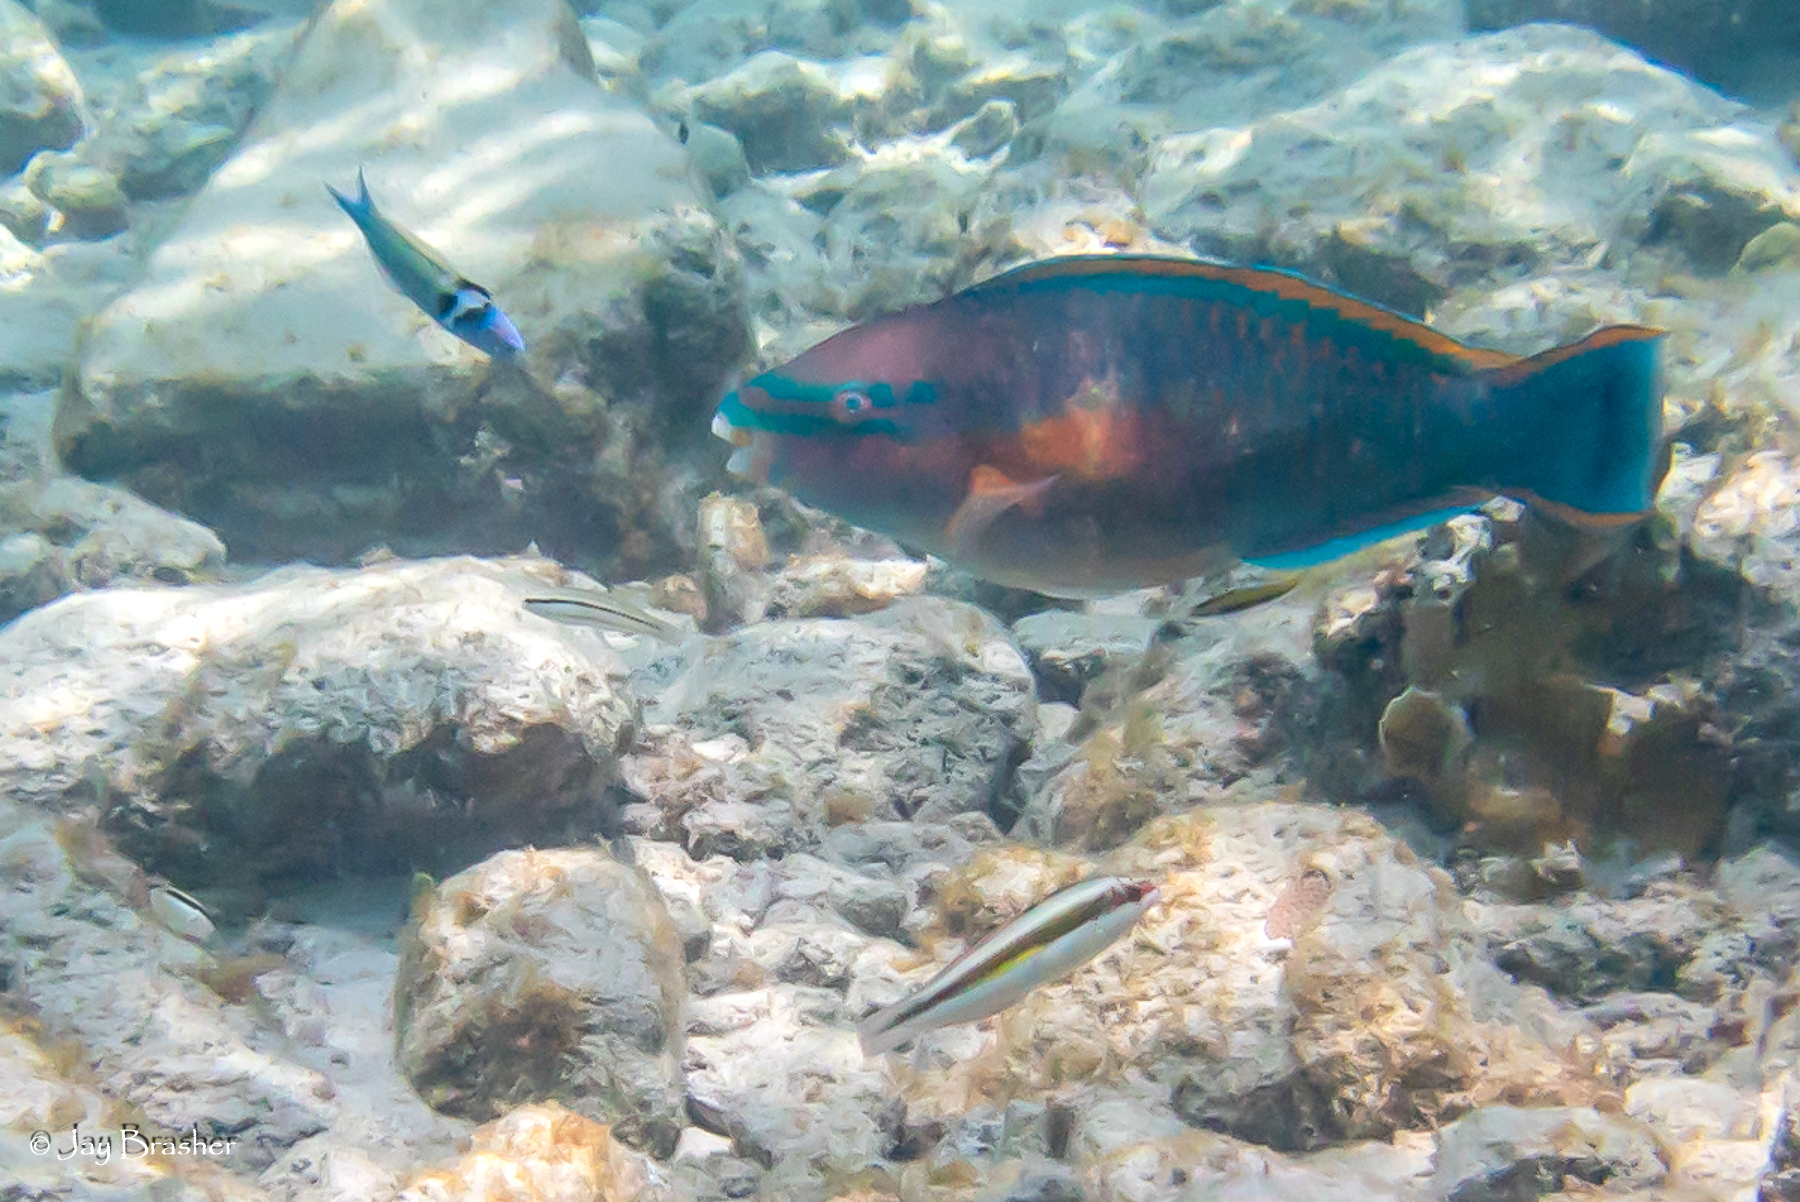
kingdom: Animalia
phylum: Chordata
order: Perciformes
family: Labridae
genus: Thalassoma
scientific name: Thalassoma bifasciatum
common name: Bluehead wrasse
